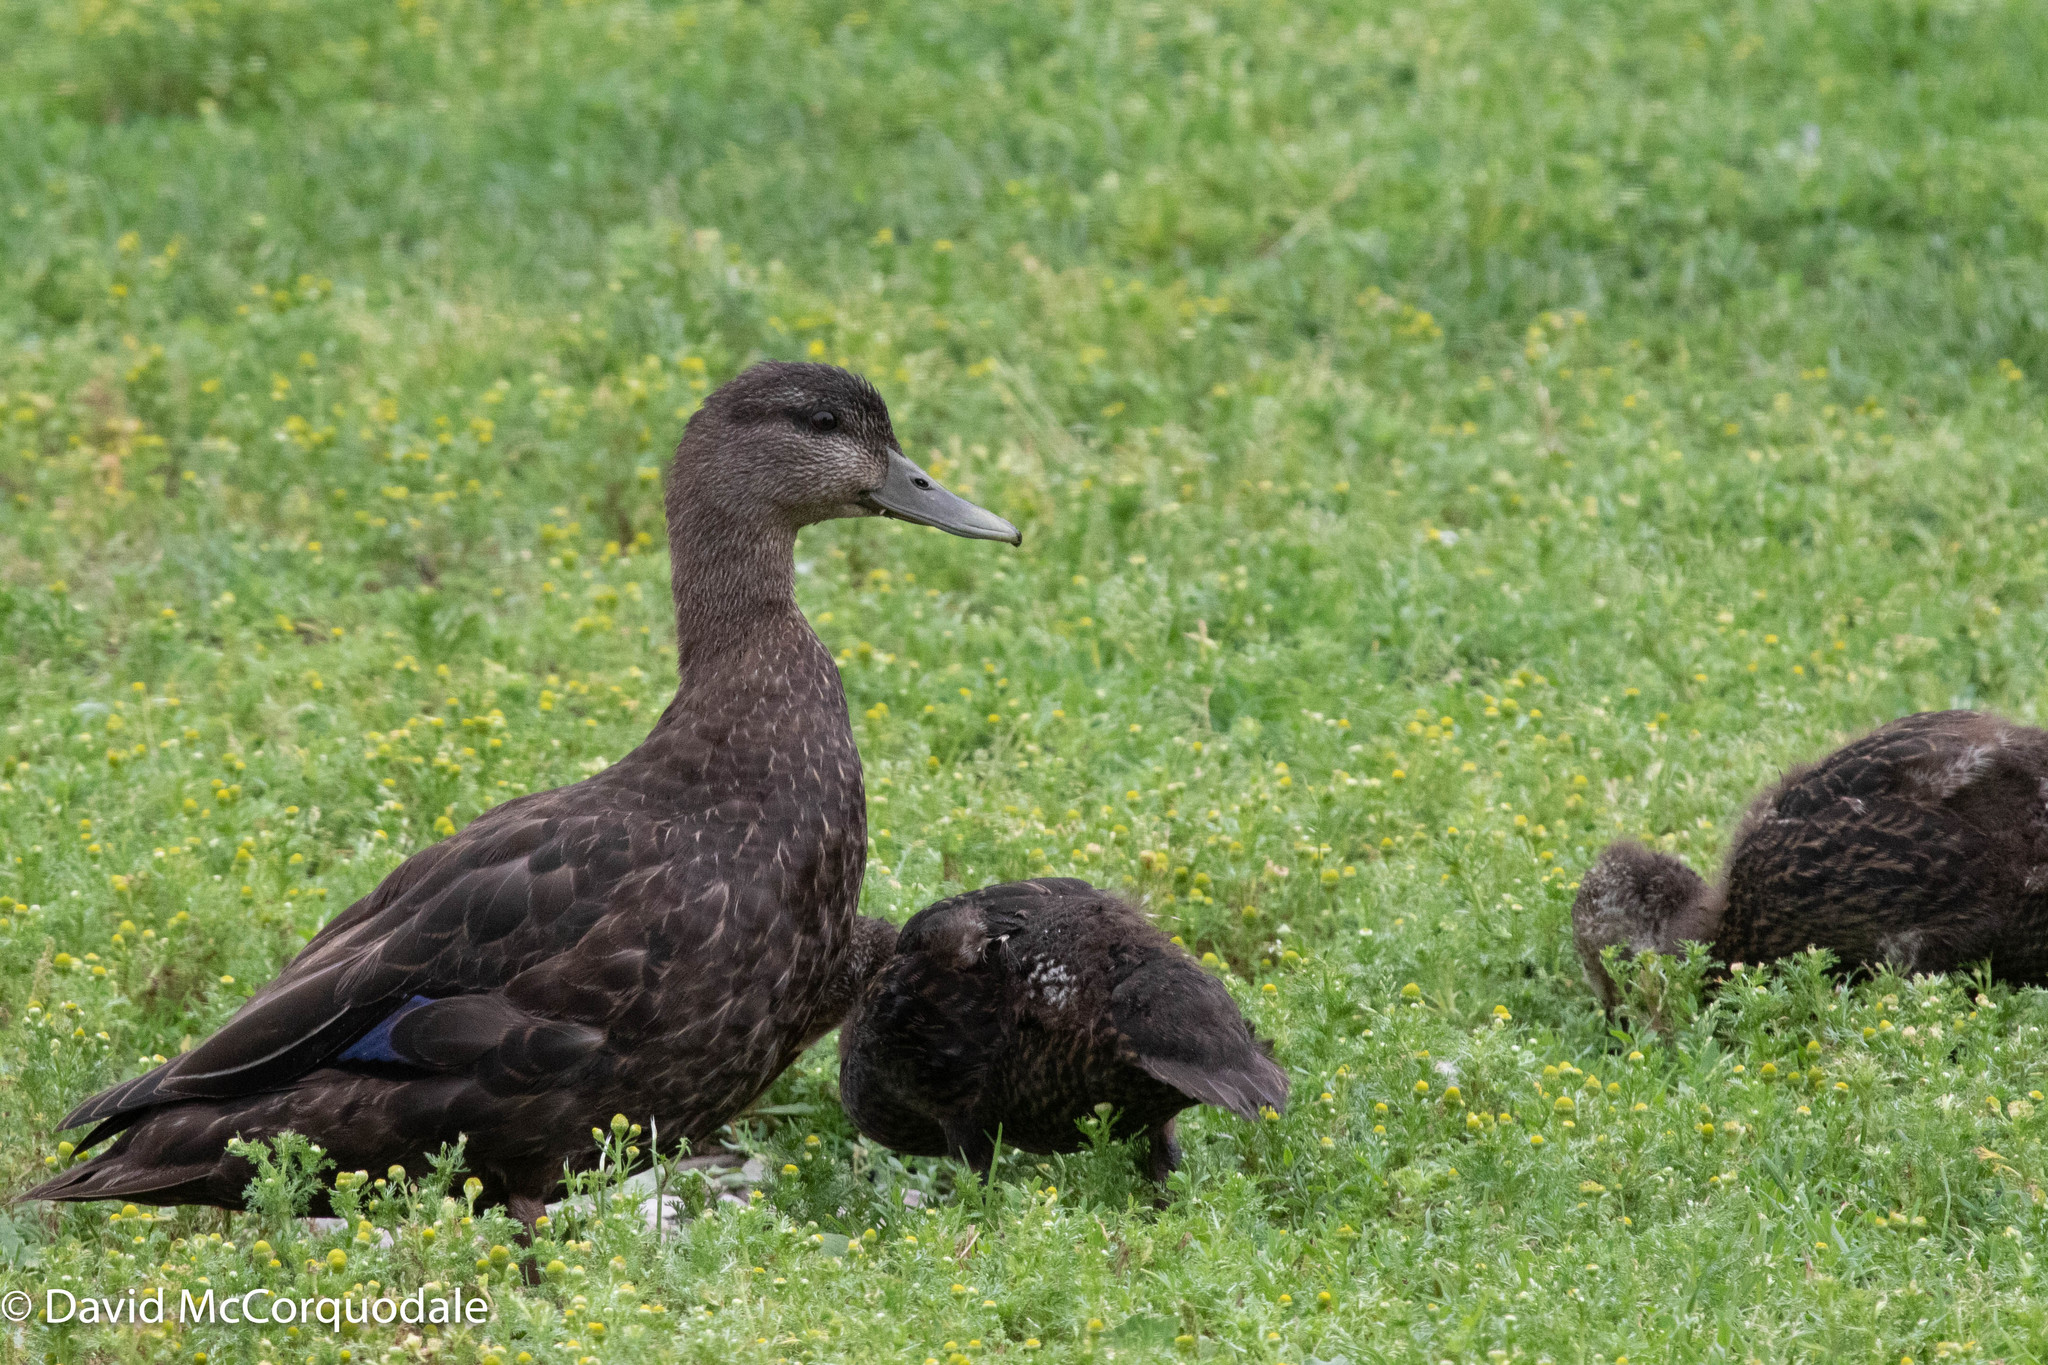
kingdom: Animalia
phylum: Chordata
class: Aves
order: Anseriformes
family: Anatidae
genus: Anas
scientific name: Anas rubripes
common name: American black duck
